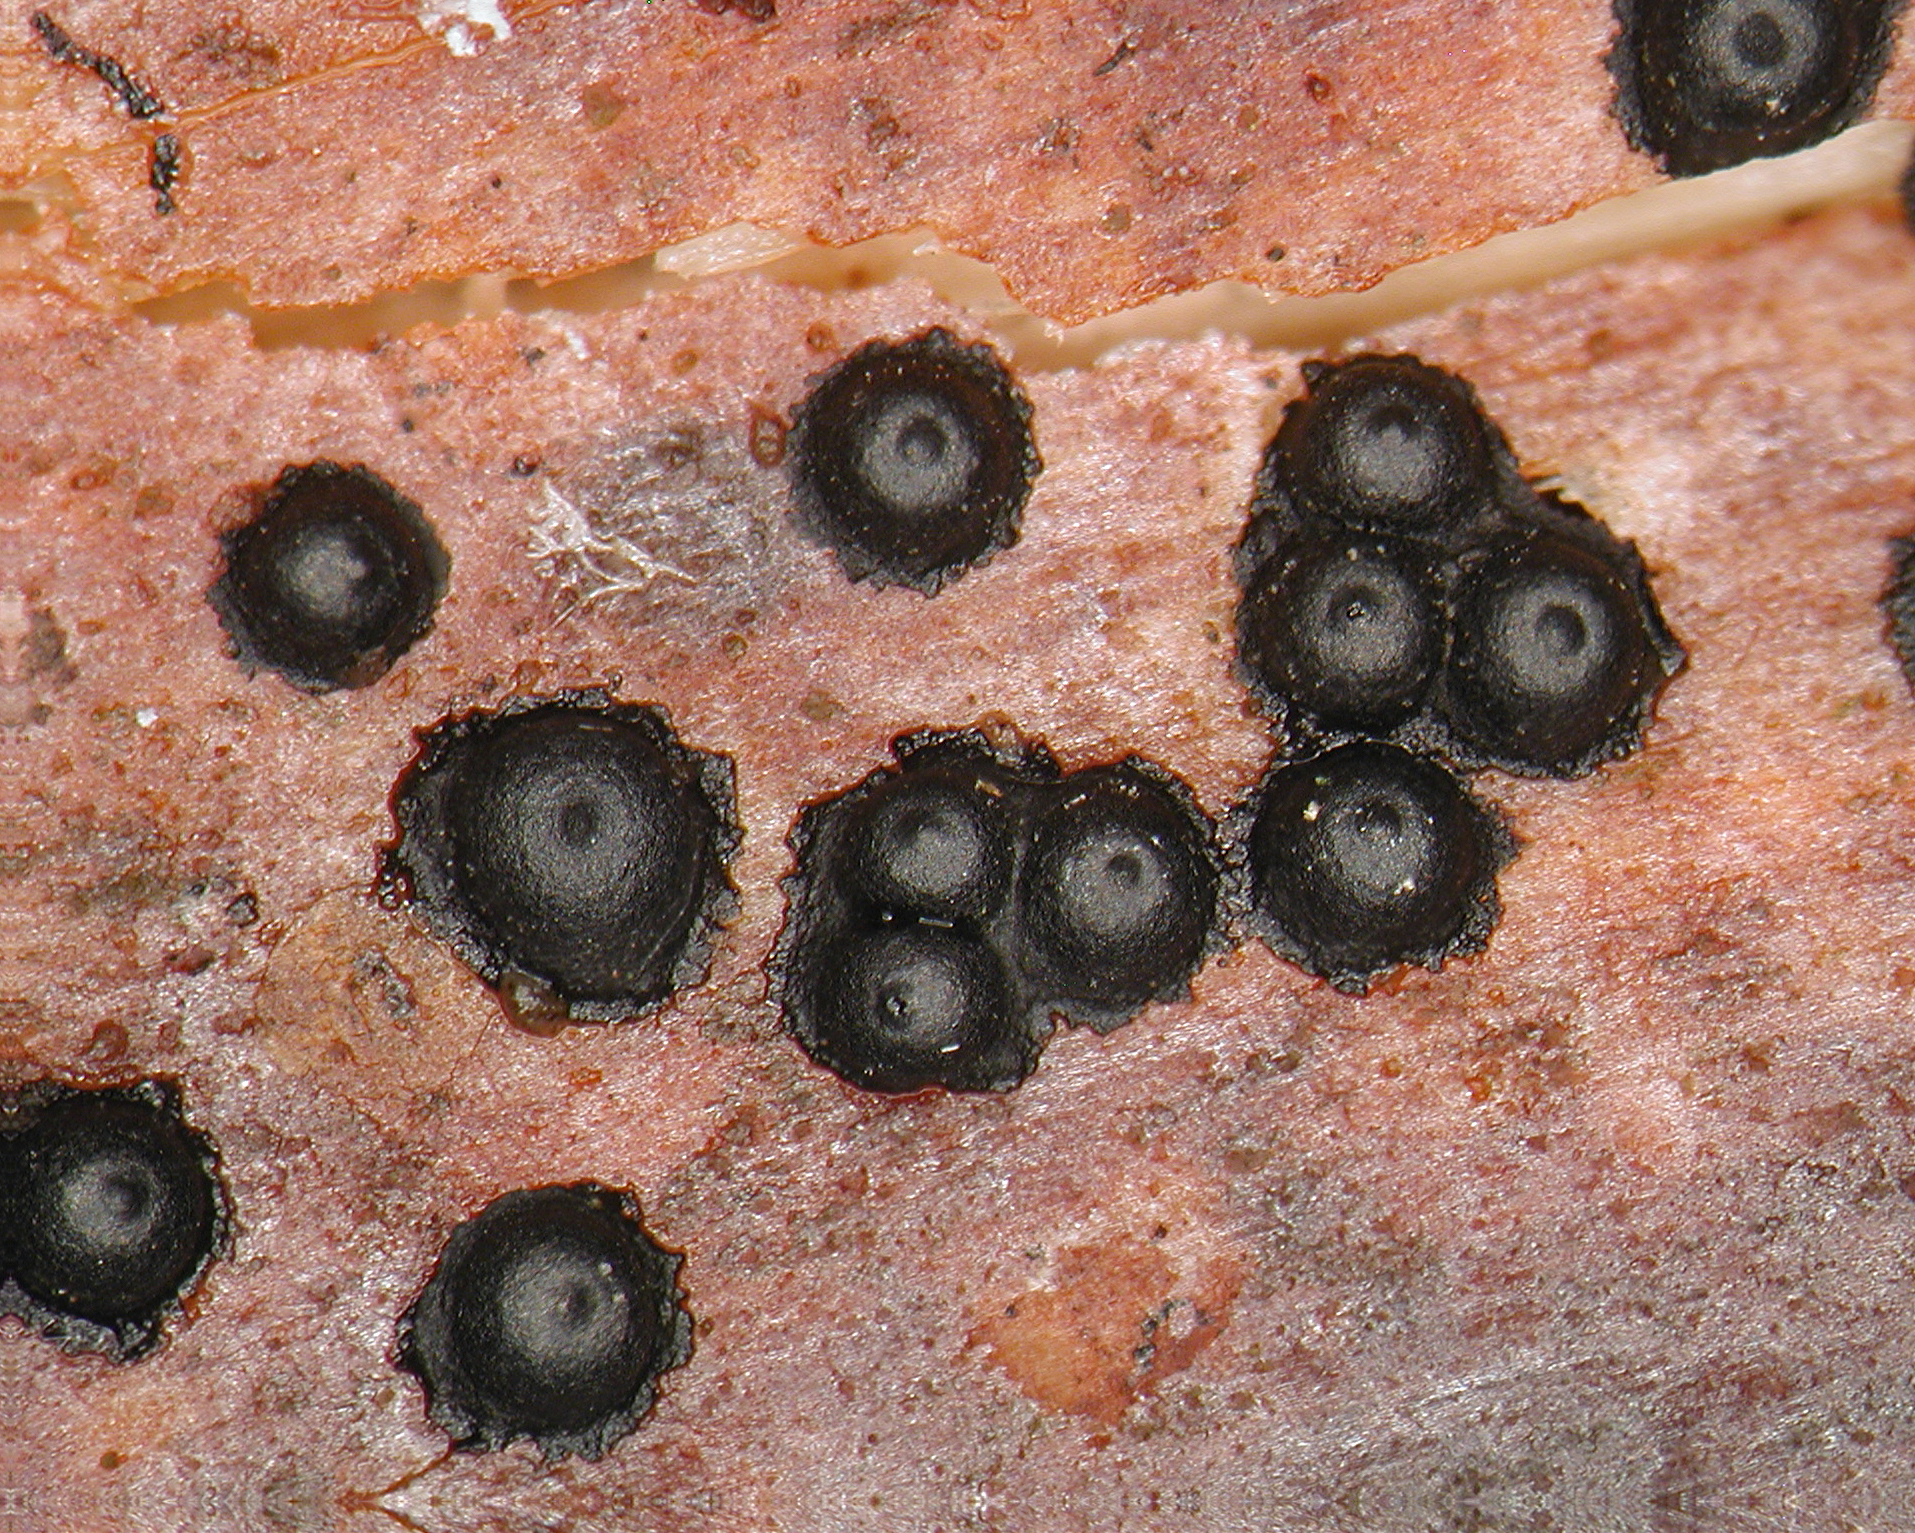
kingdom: Fungi
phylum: Ascomycota
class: Sordariomycetes
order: Xylariales
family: Xylariaceae
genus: Rosellinia
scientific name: Rosellinia rhopalostylidicola
